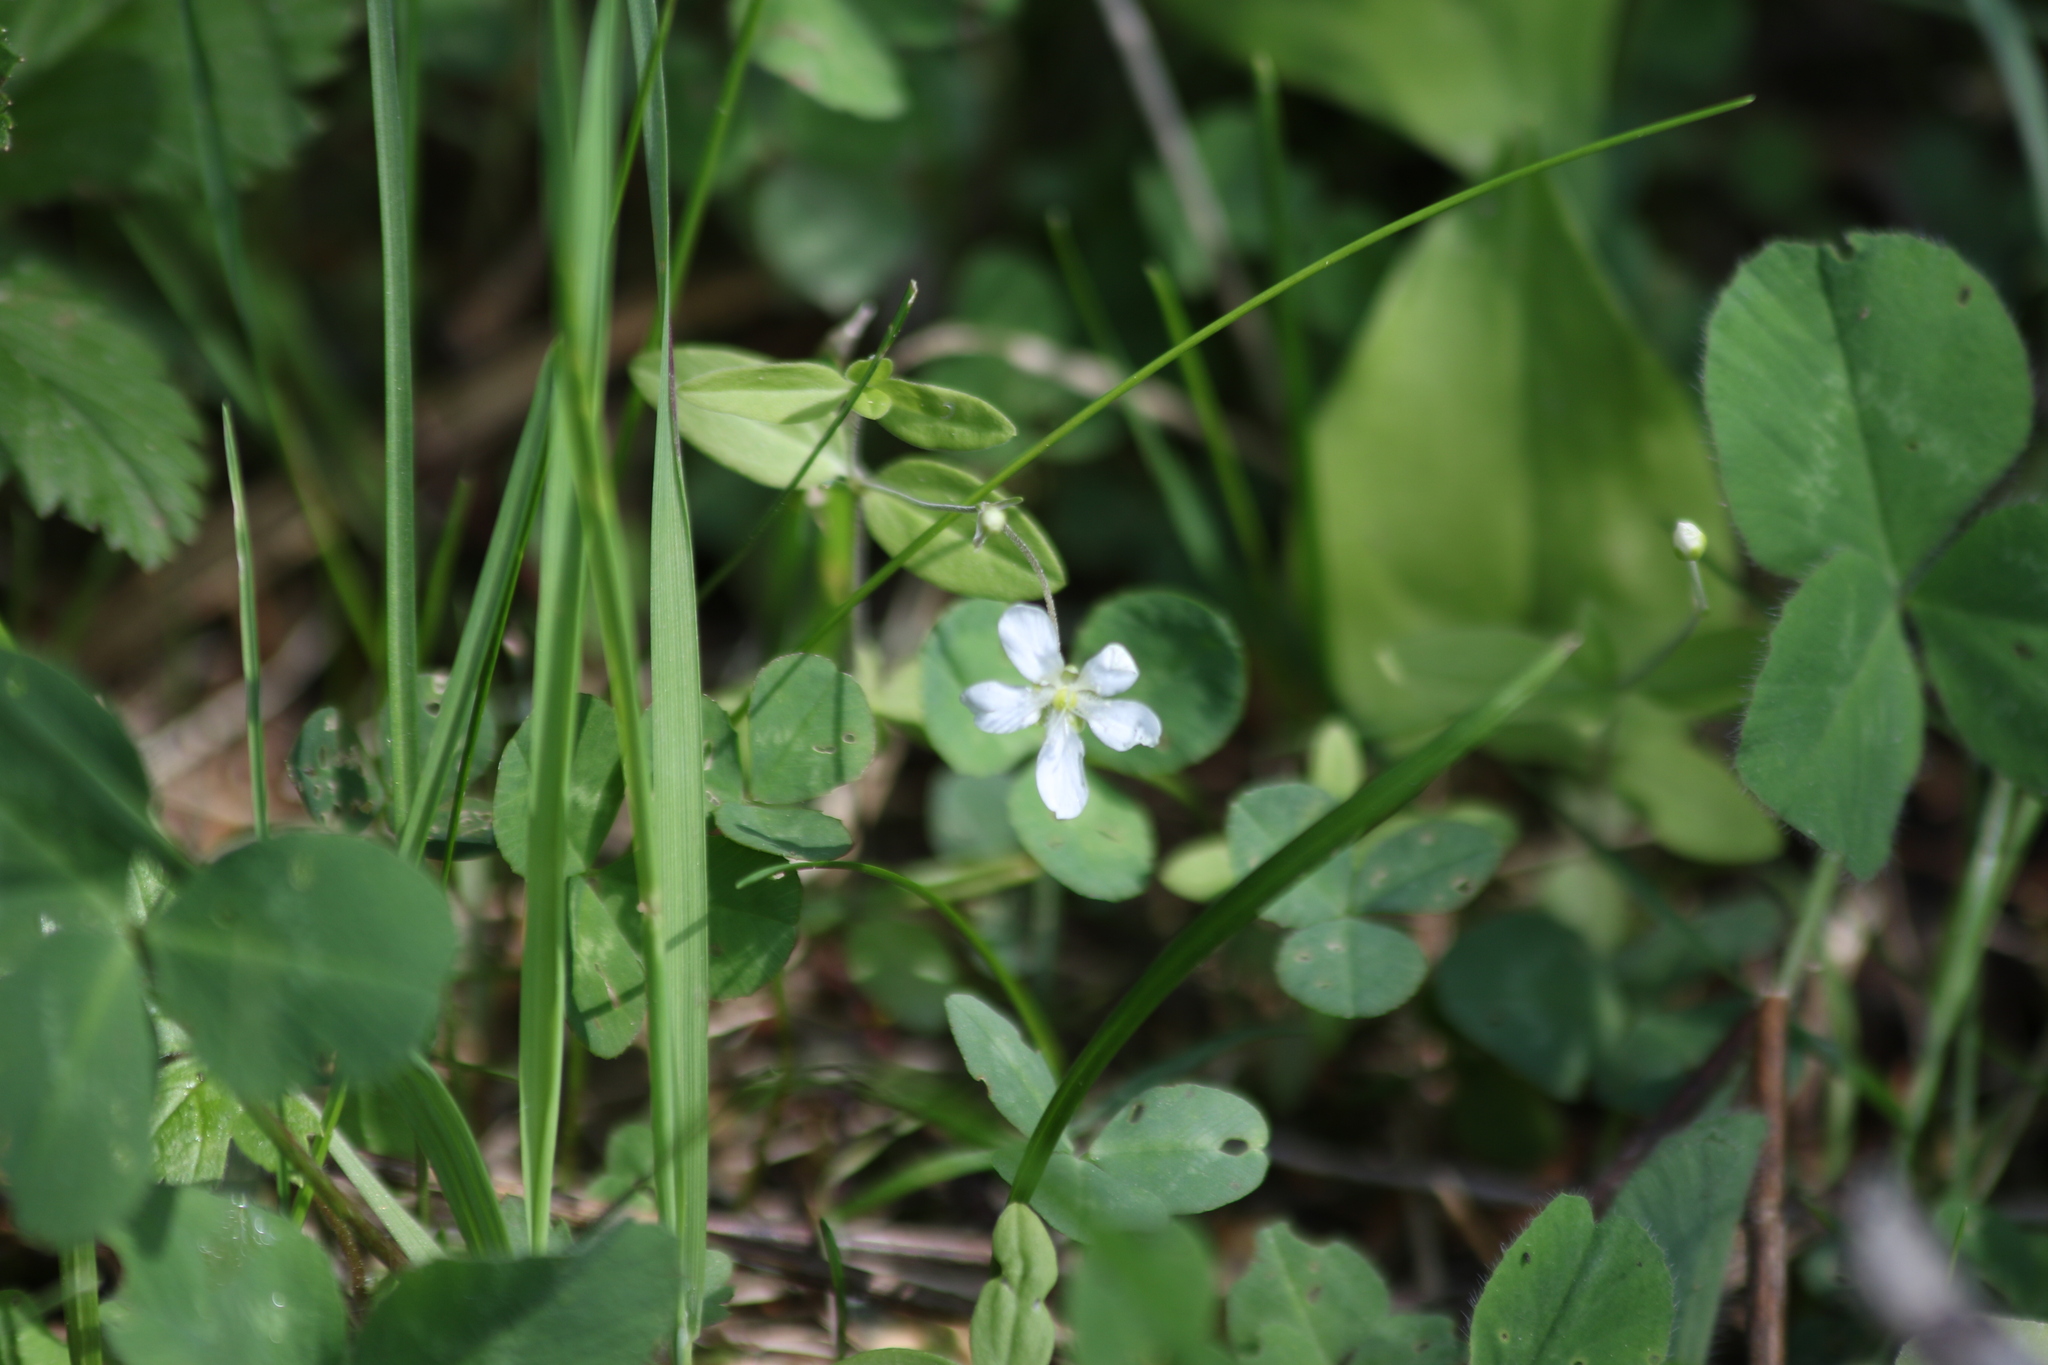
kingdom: Plantae
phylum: Tracheophyta
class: Magnoliopsida
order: Caryophyllales
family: Caryophyllaceae
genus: Moehringia
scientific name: Moehringia lateriflora
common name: Blunt-leaved sandwort
